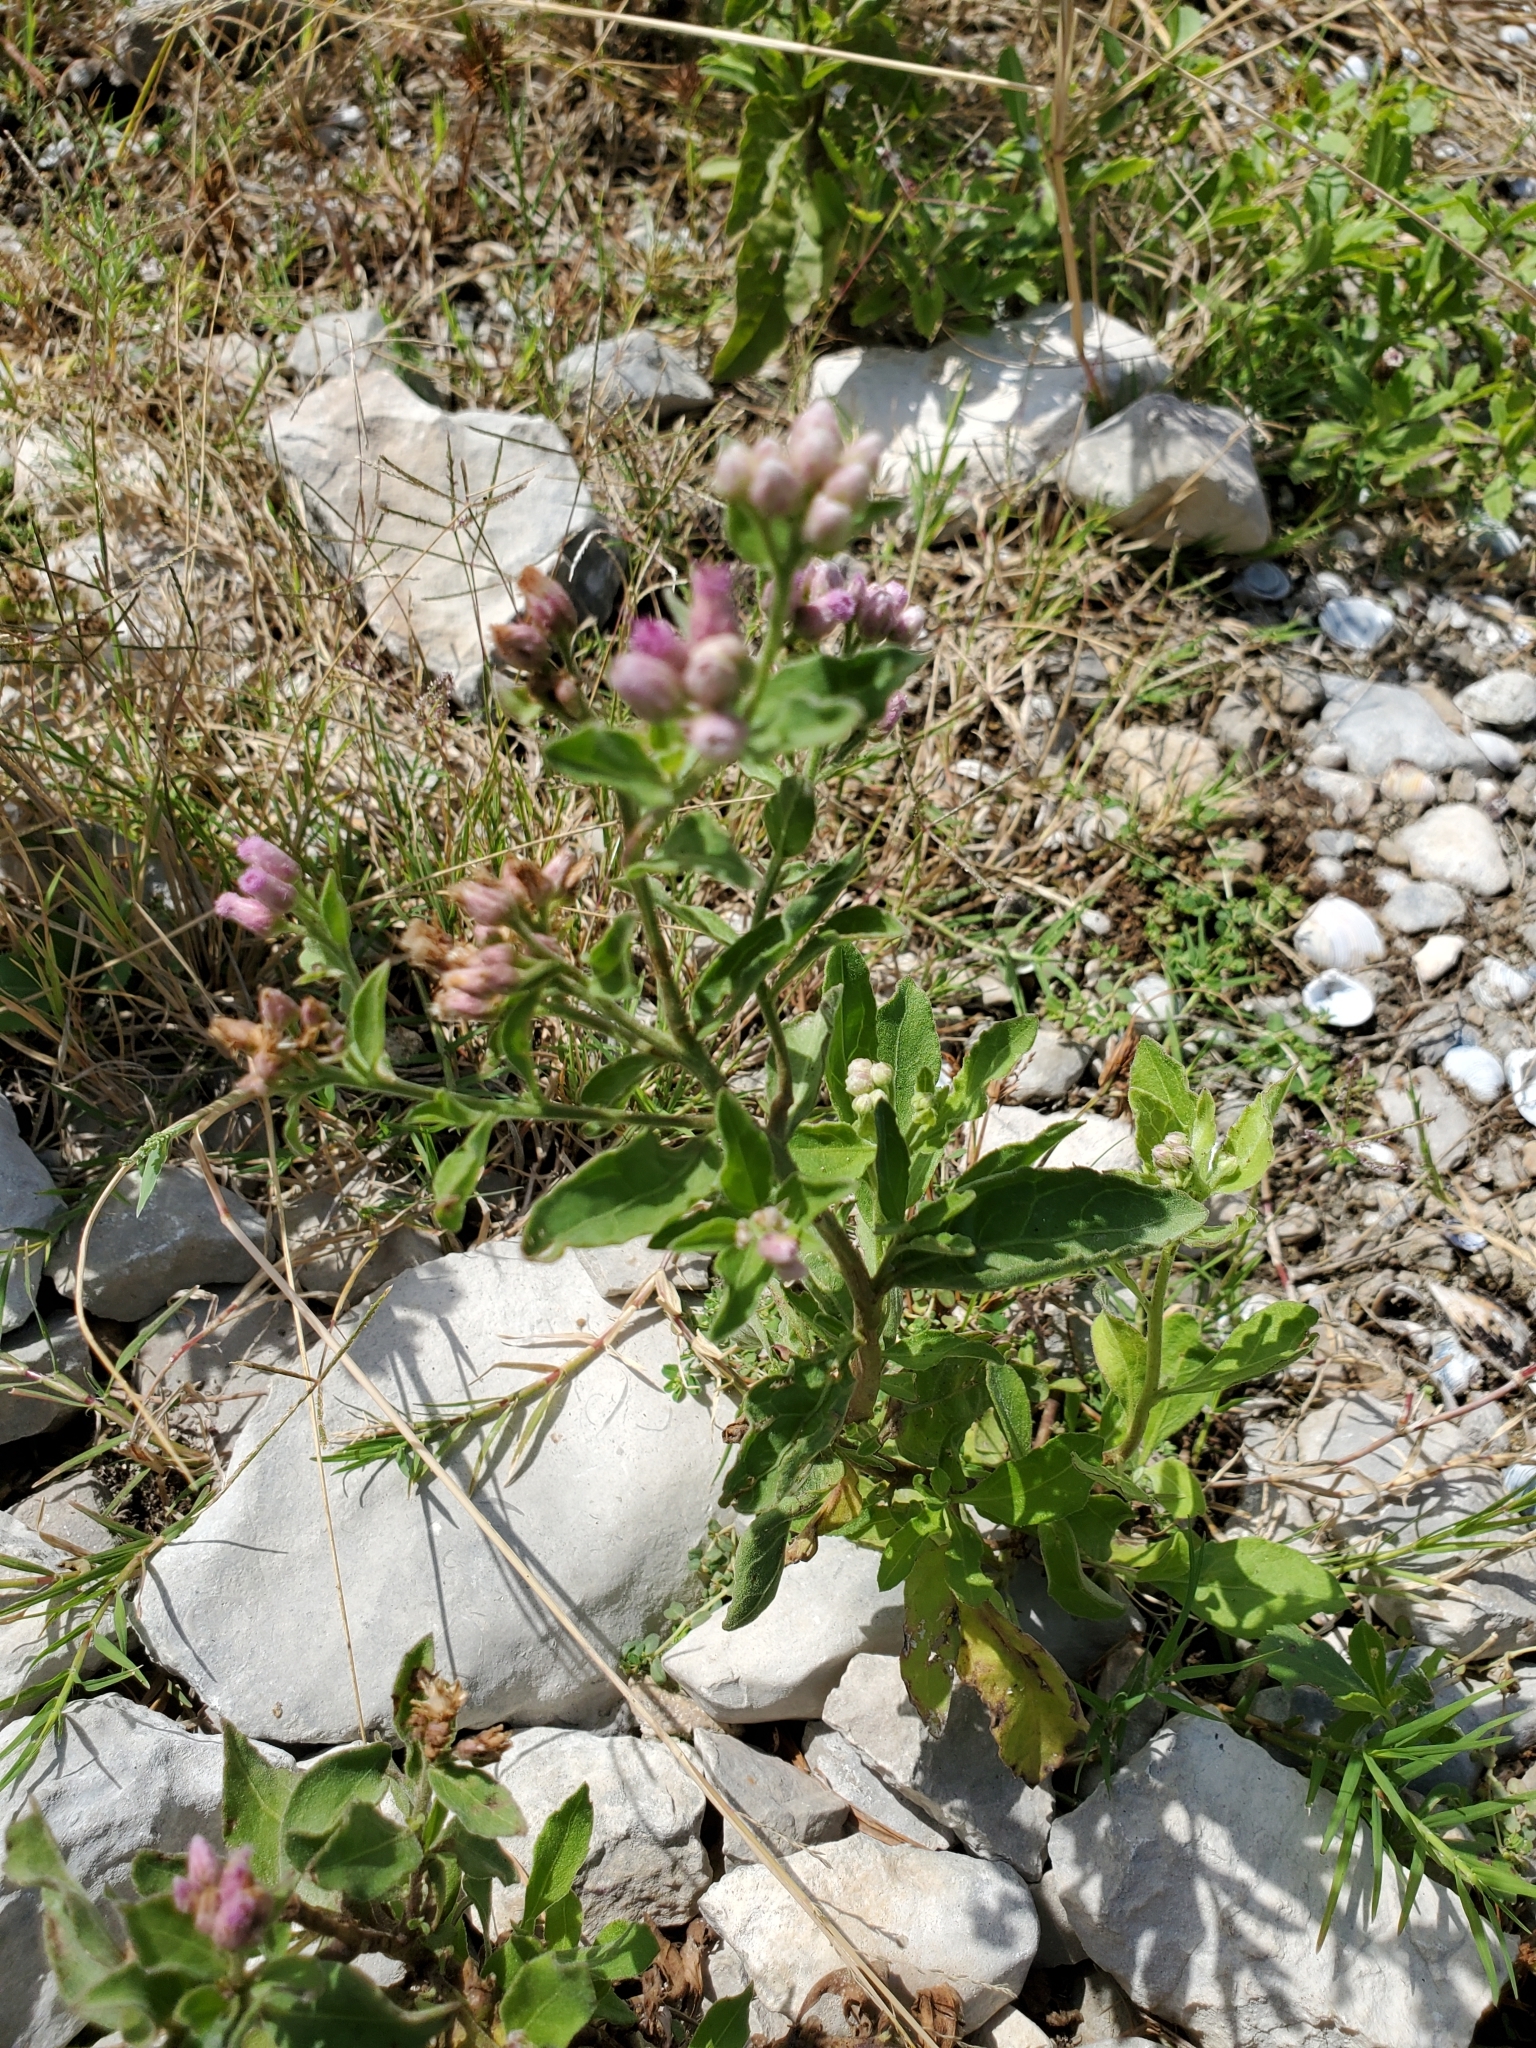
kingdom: Plantae
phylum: Tracheophyta
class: Magnoliopsida
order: Asterales
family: Asteraceae
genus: Pluchea
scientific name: Pluchea odorata
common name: Saltmarsh fleabane
